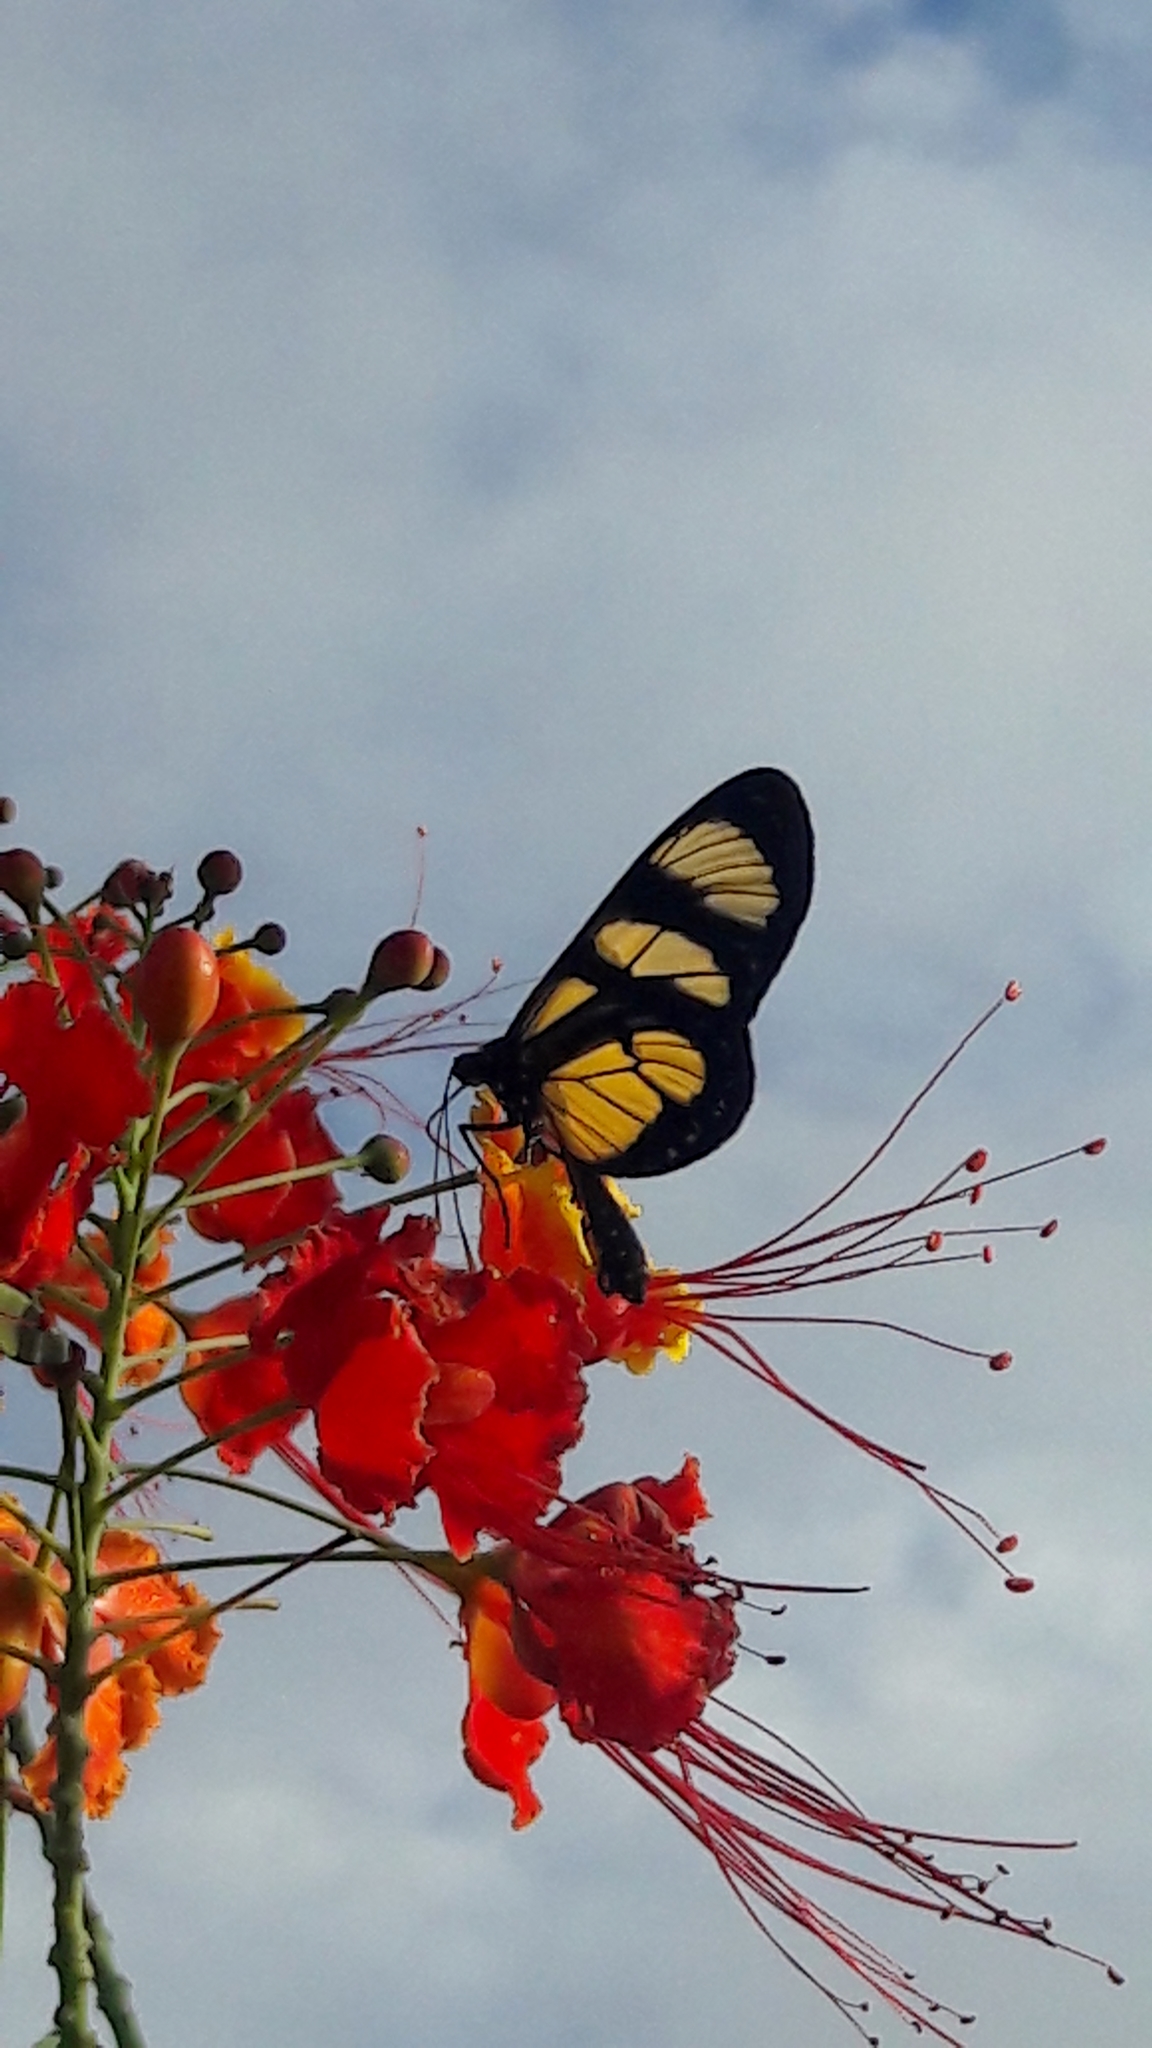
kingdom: Animalia
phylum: Arthropoda
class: Insecta
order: Lepidoptera
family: Nymphalidae
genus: Methona
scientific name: Methona themisto
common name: Themisto amberwing
